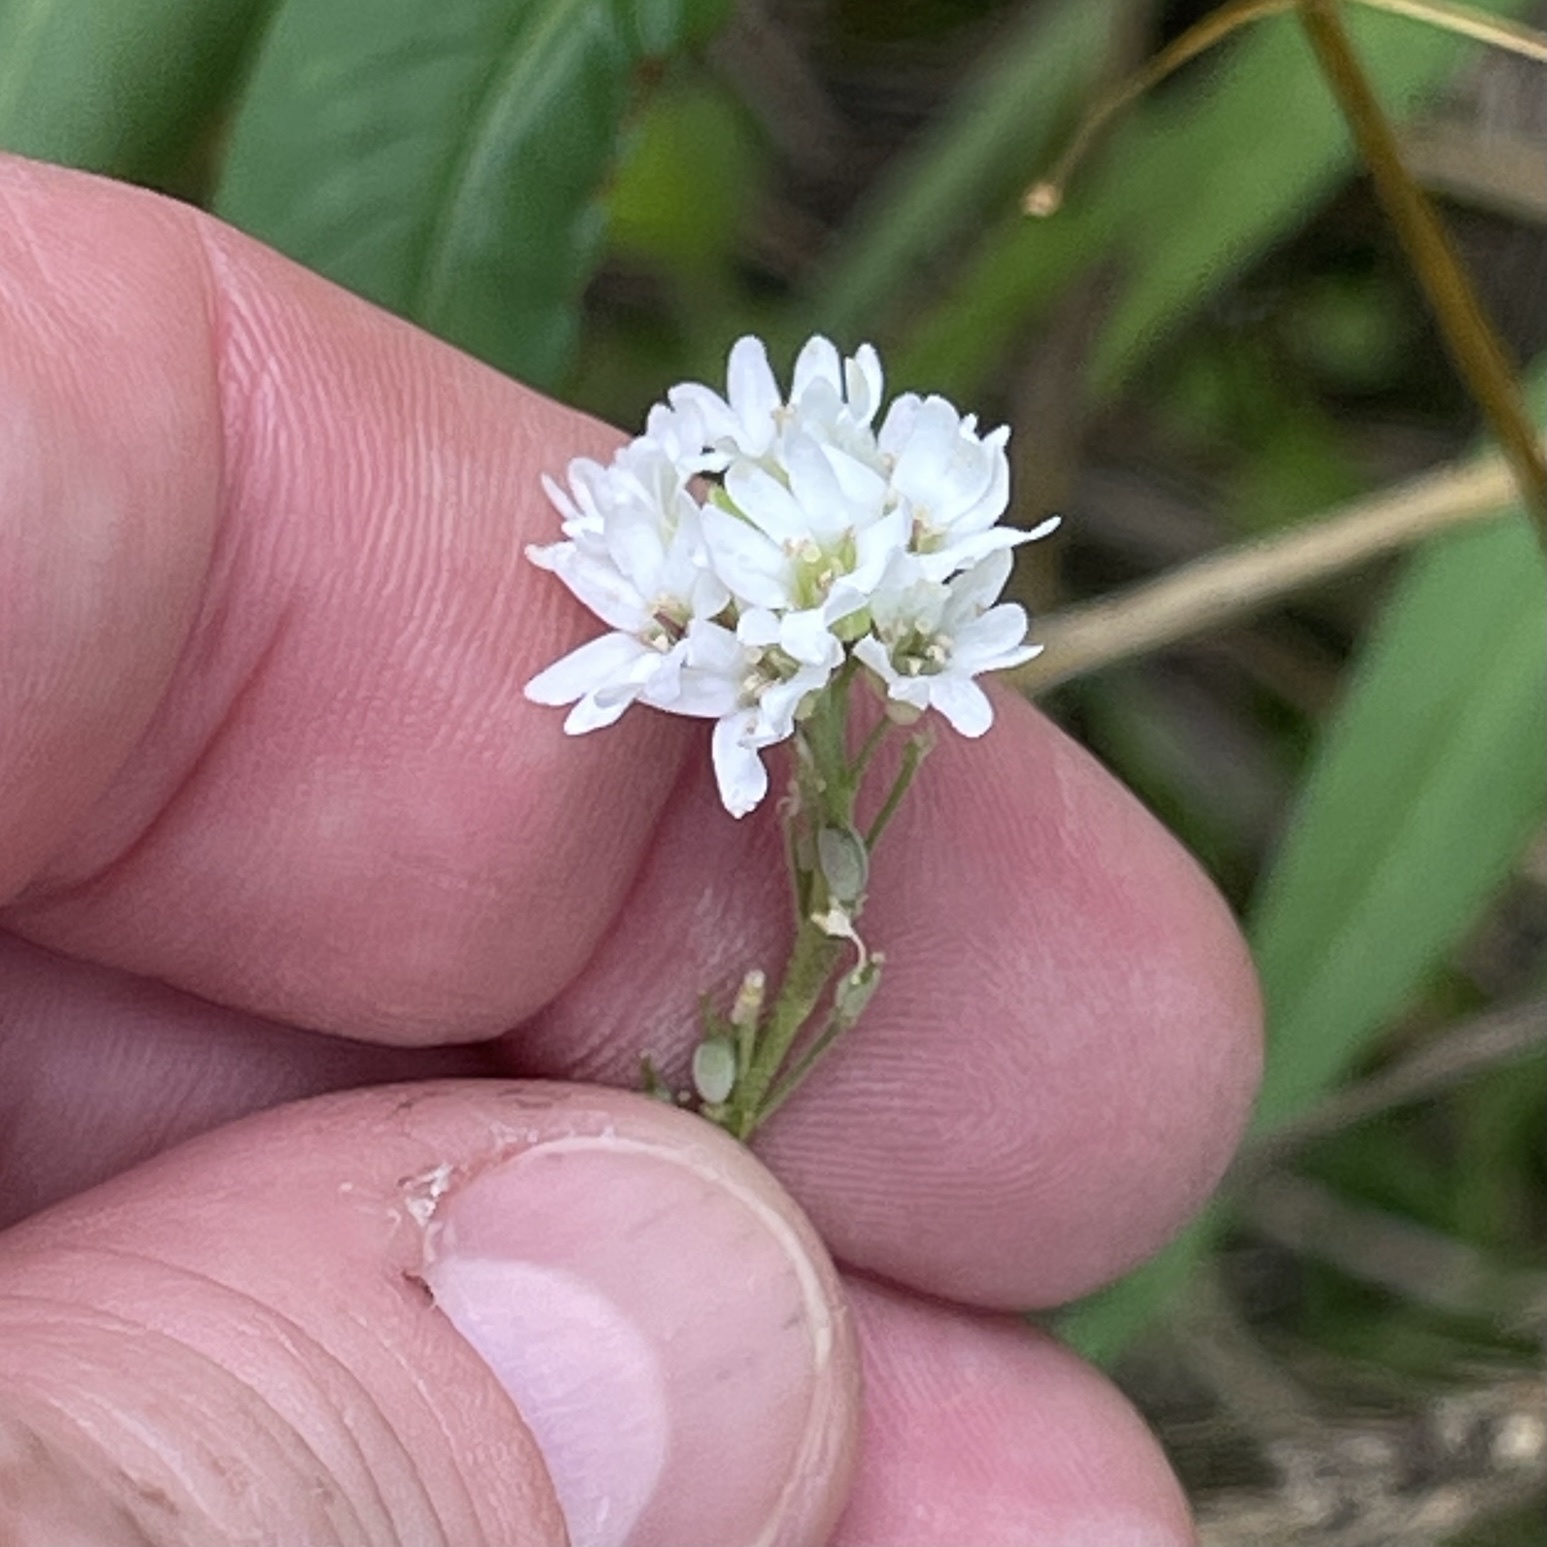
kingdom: Plantae
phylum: Tracheophyta
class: Magnoliopsida
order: Brassicales
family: Brassicaceae
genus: Berteroa
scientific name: Berteroa incana
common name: Hoary alison
